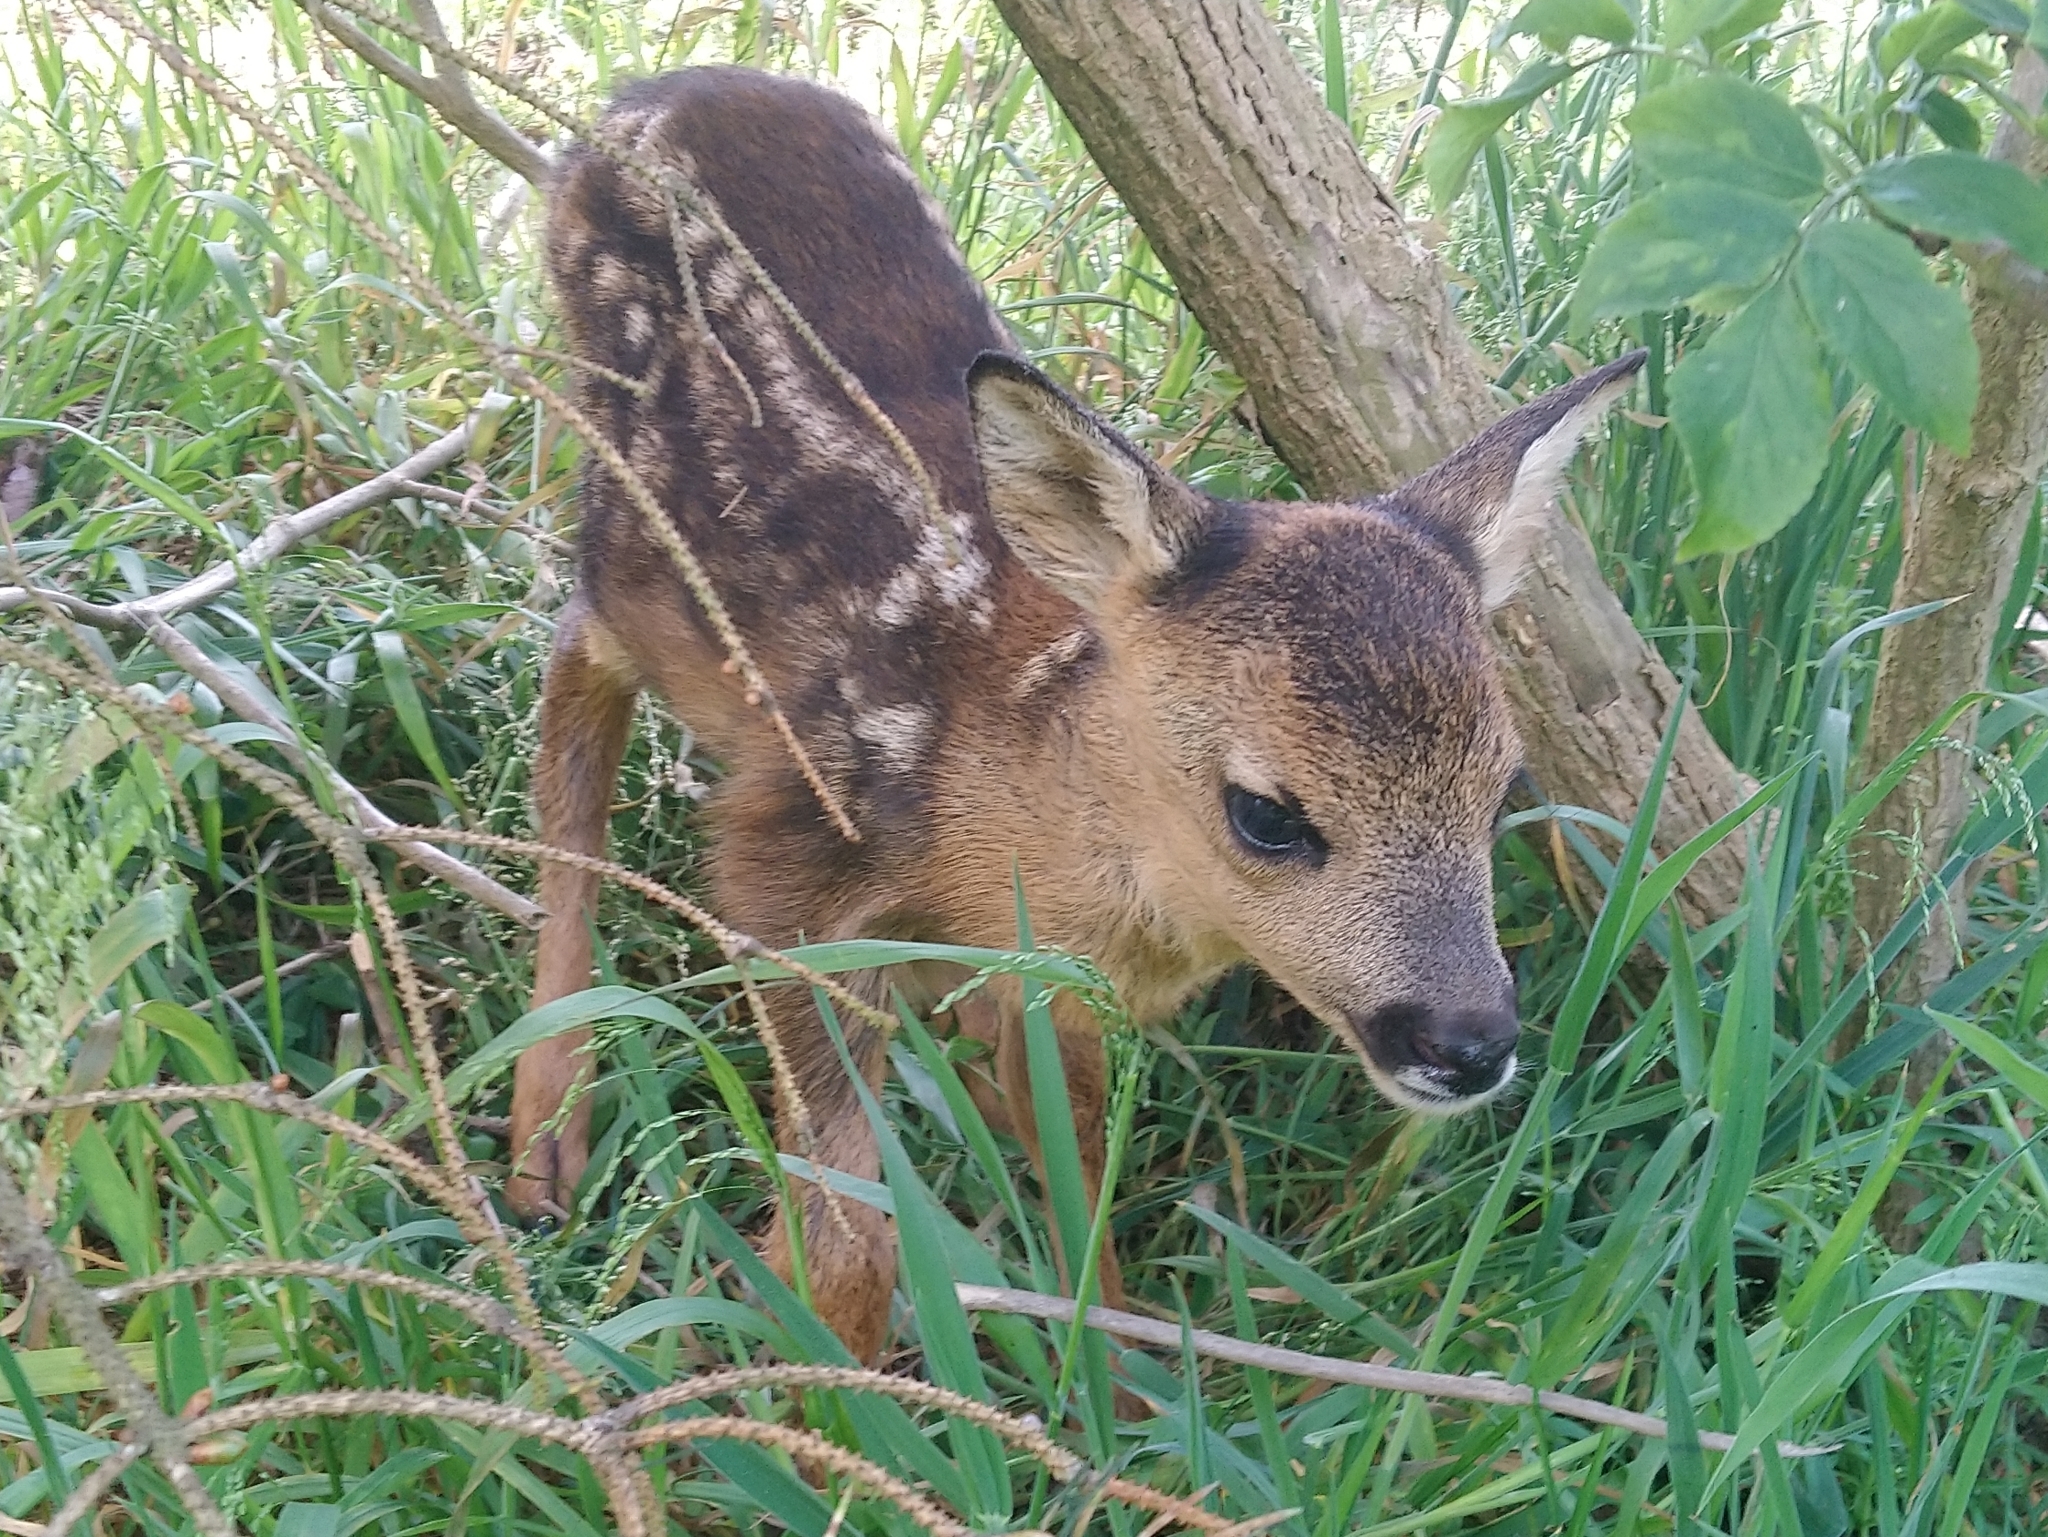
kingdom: Animalia
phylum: Chordata
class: Mammalia
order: Artiodactyla
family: Cervidae
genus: Capreolus
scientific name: Capreolus capreolus
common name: Western roe deer
